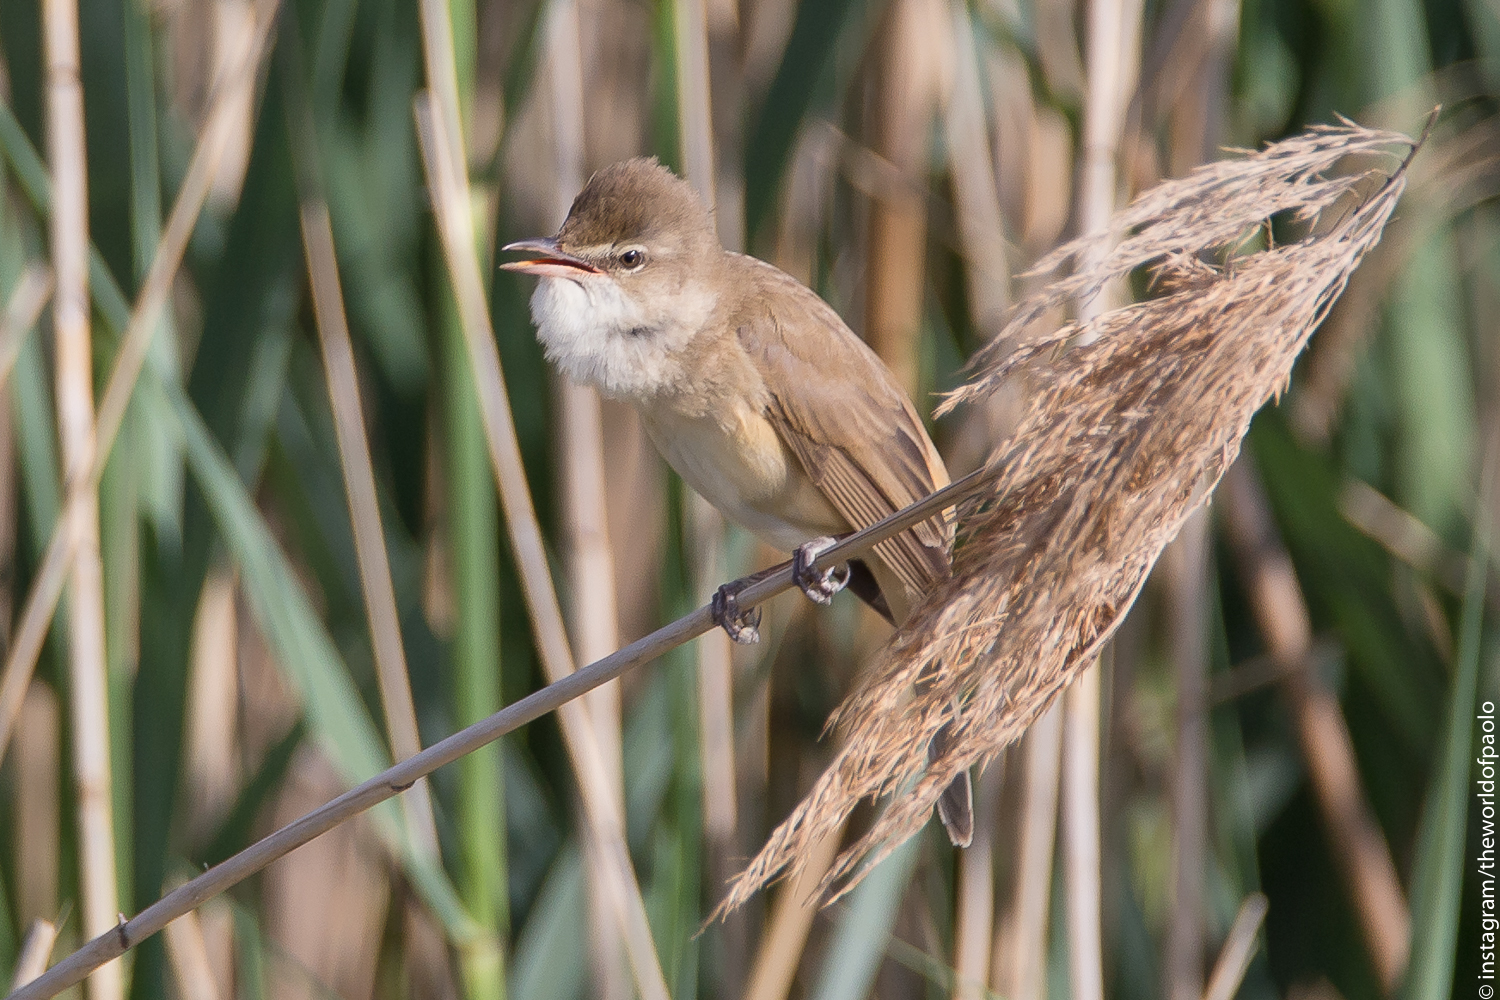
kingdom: Animalia
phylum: Chordata
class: Aves
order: Passeriformes
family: Acrocephalidae
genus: Acrocephalus
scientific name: Acrocephalus arundinaceus
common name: Great reed warbler
